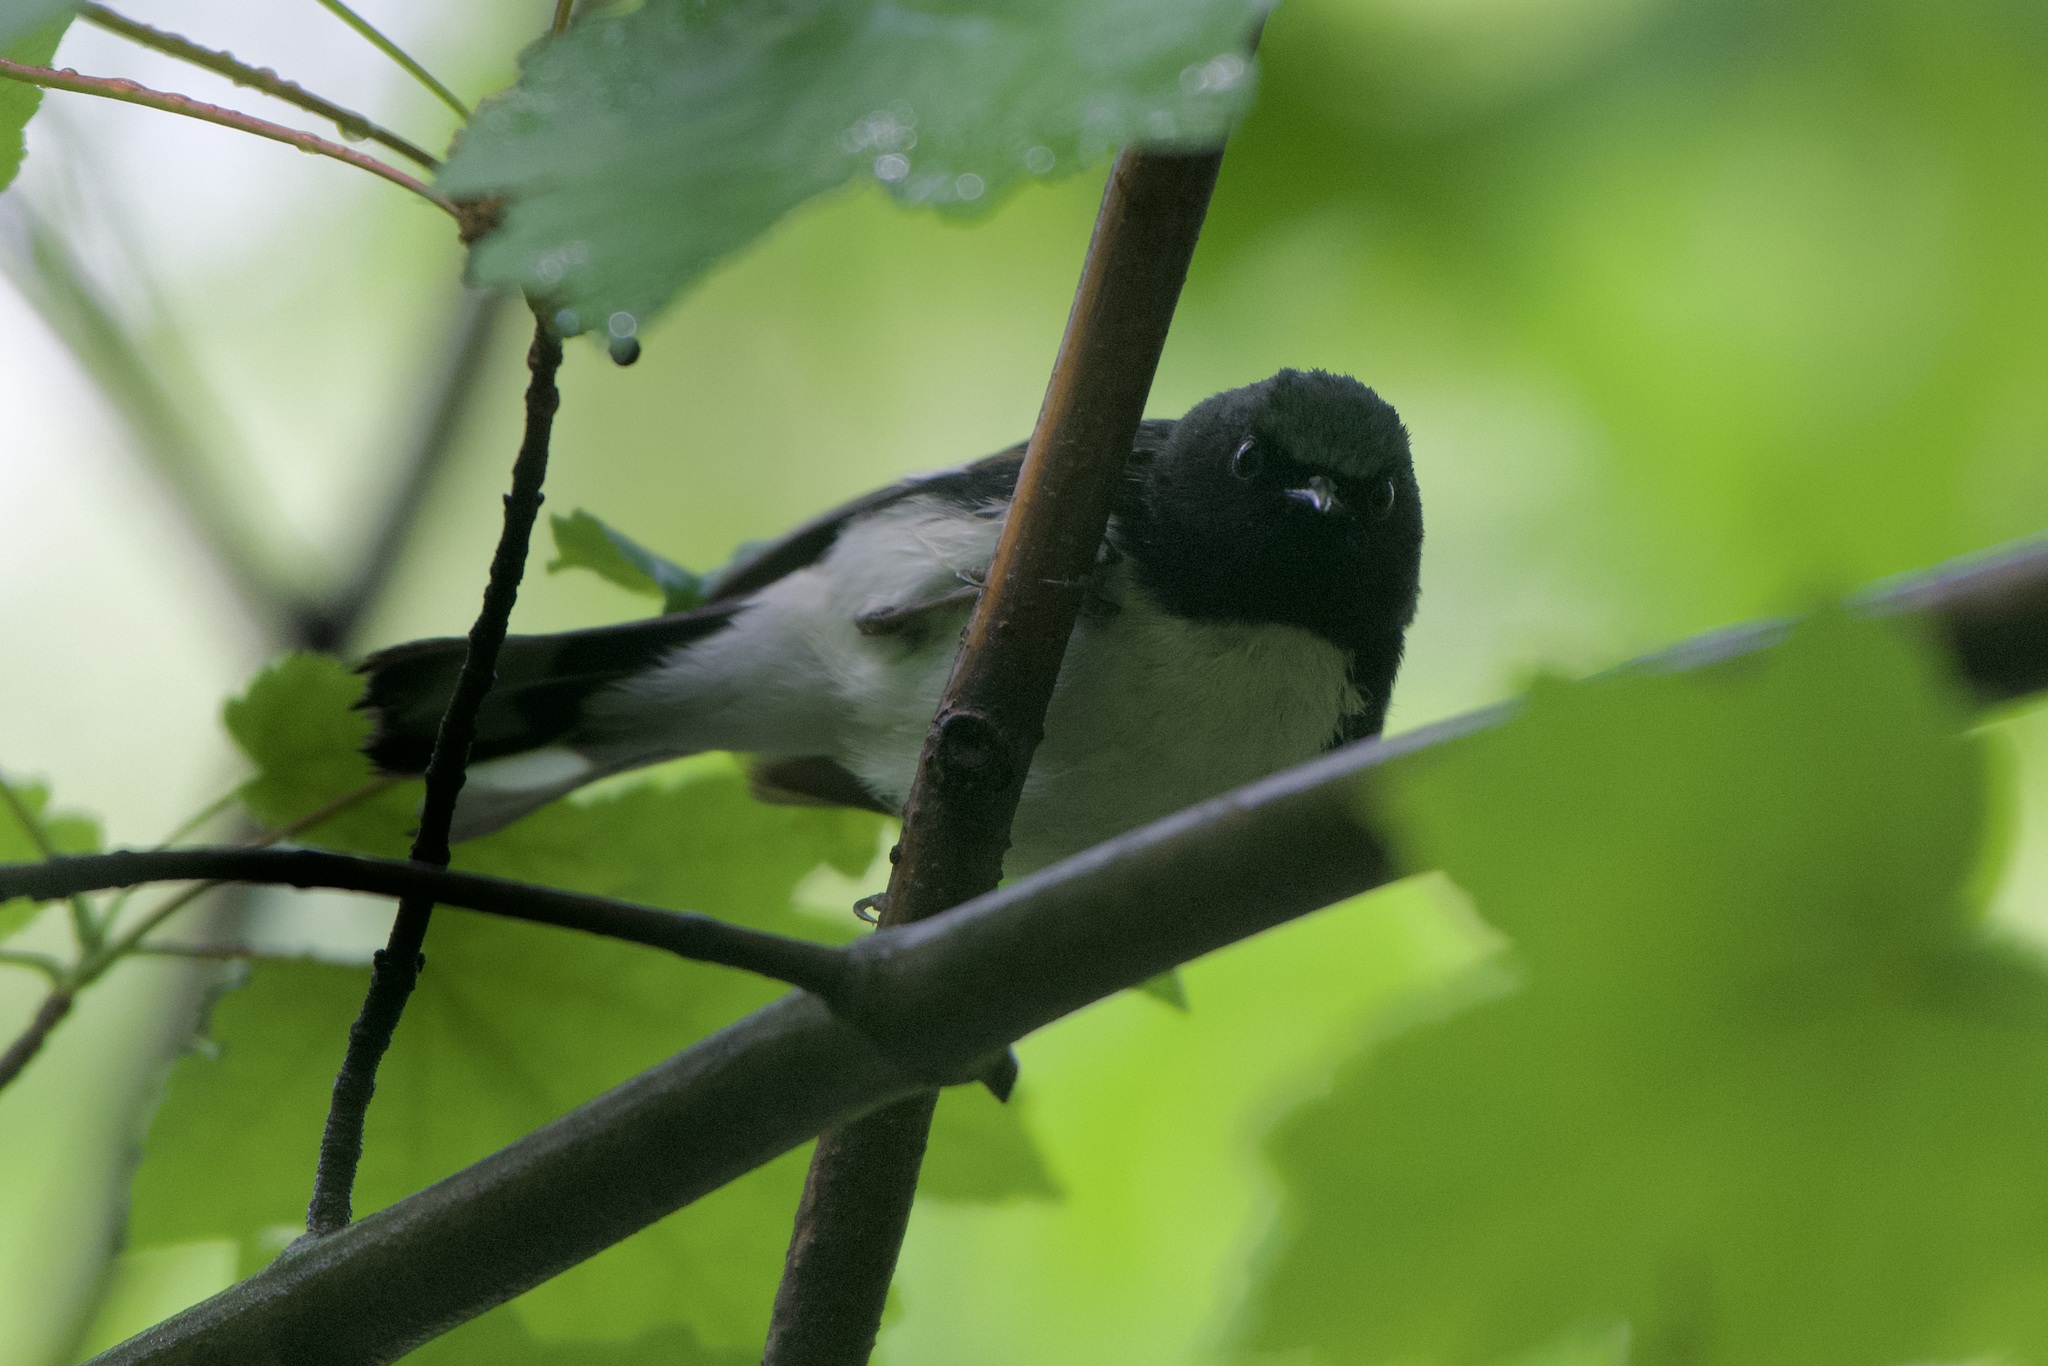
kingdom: Animalia
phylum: Chordata
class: Aves
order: Passeriformes
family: Parulidae
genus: Setophaga
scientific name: Setophaga caerulescens
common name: Black-throated blue warbler
